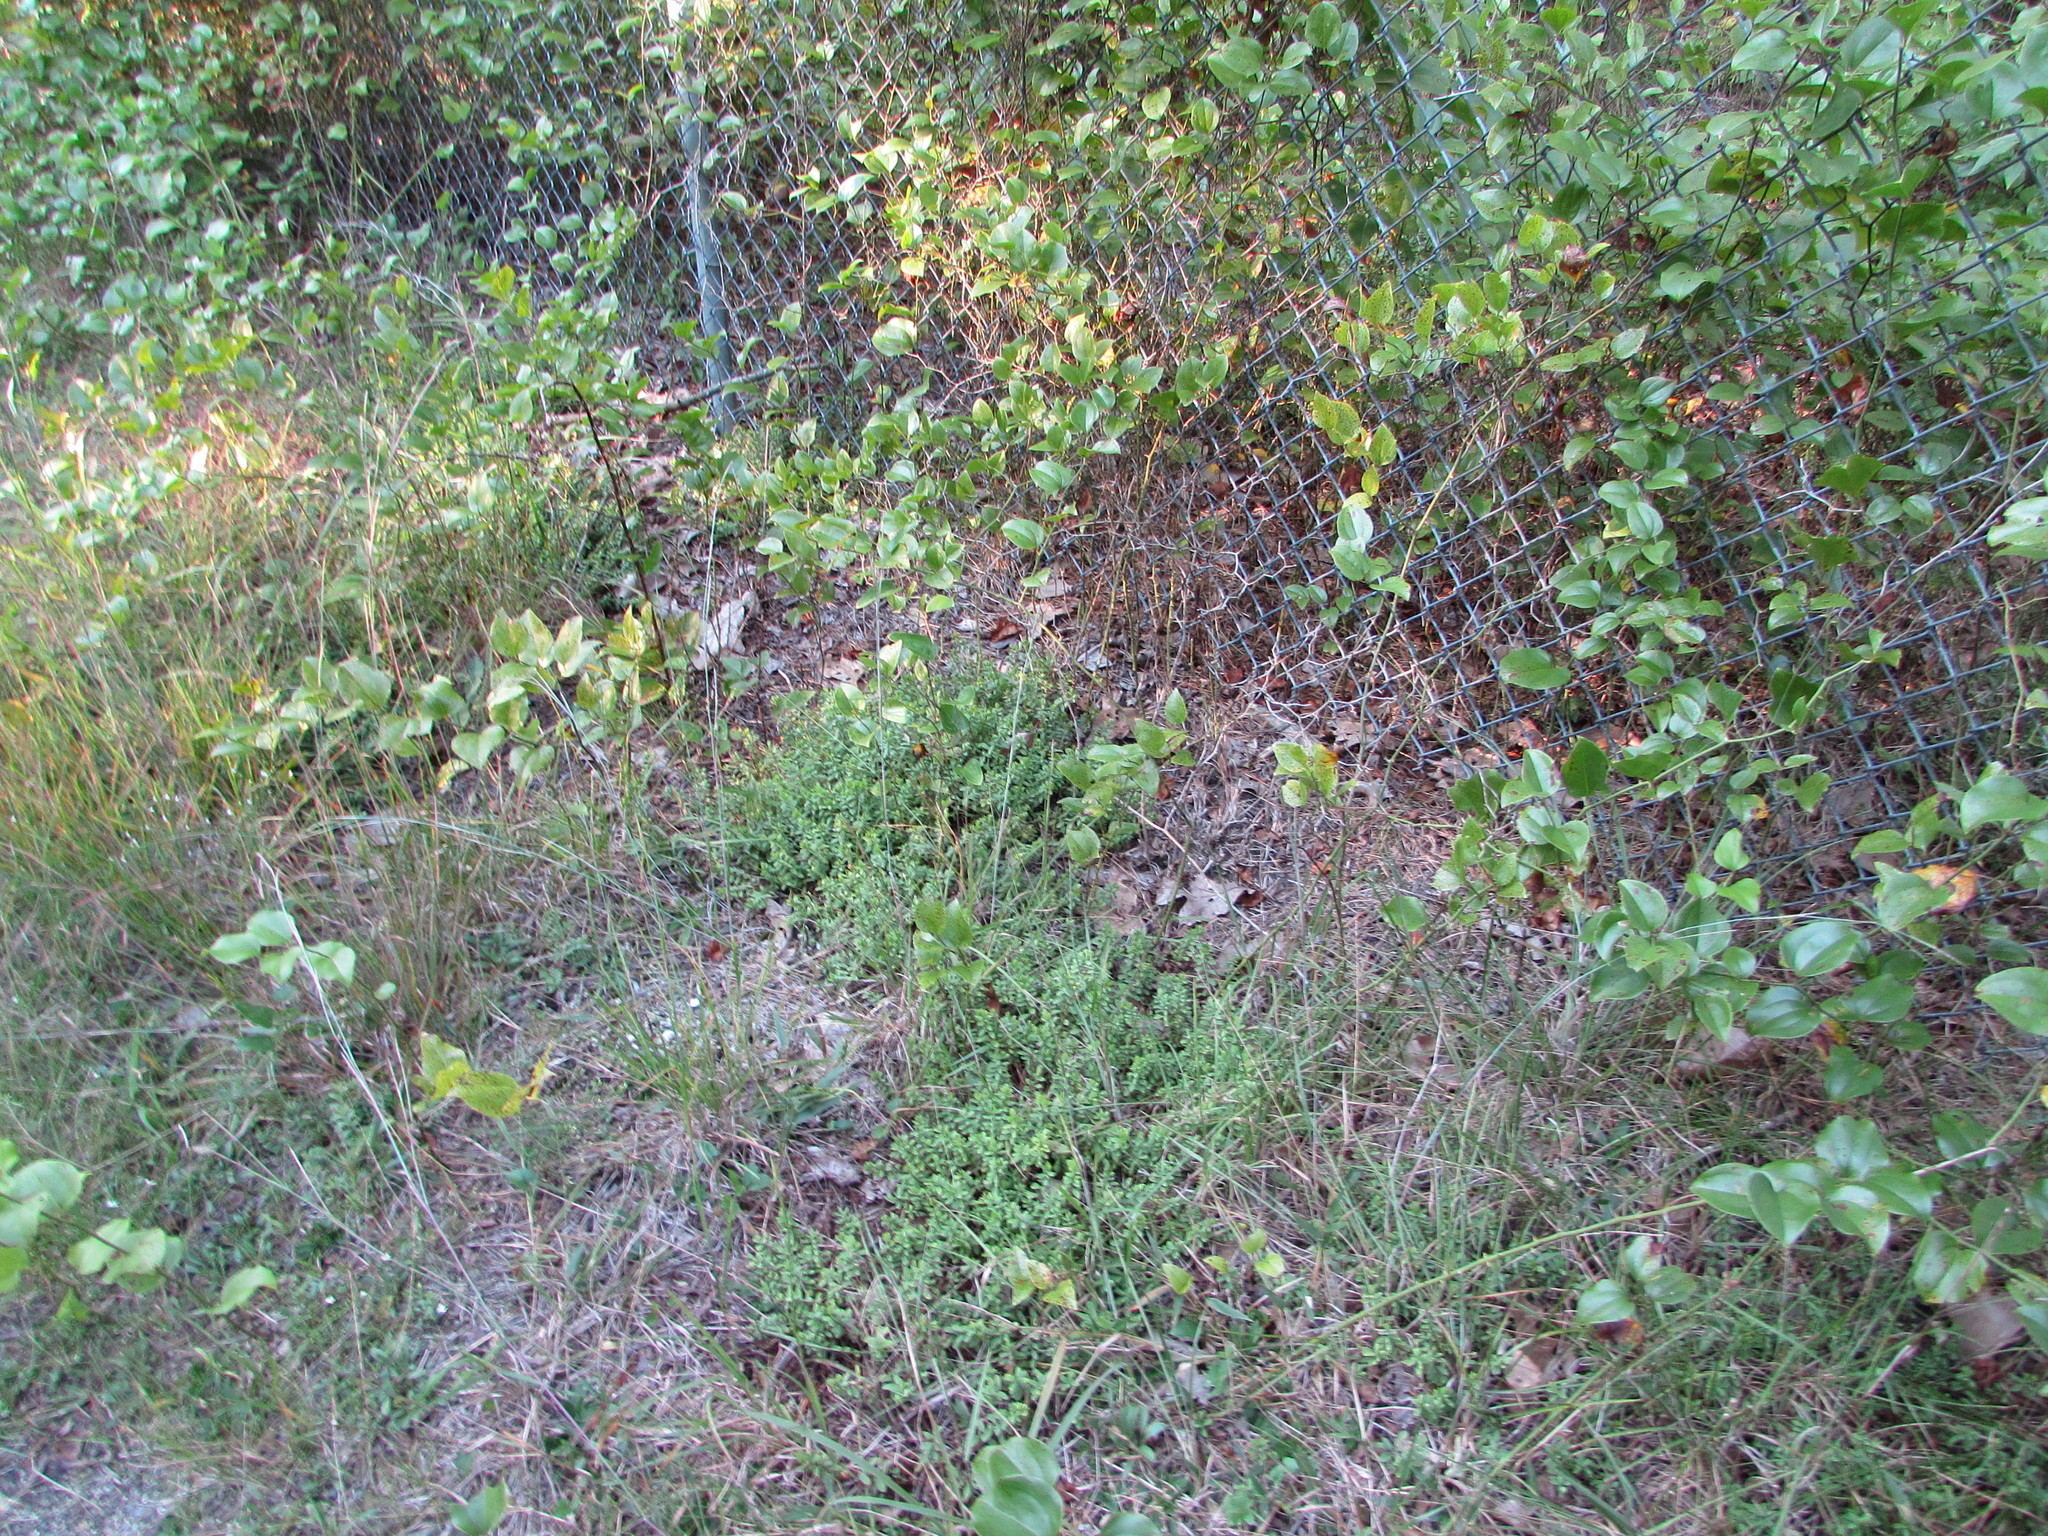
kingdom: Plantae
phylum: Tracheophyta
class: Magnoliopsida
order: Malpighiales
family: Hypericaceae
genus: Hypericum
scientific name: Hypericum hypericoides
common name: St. andrew's cross
